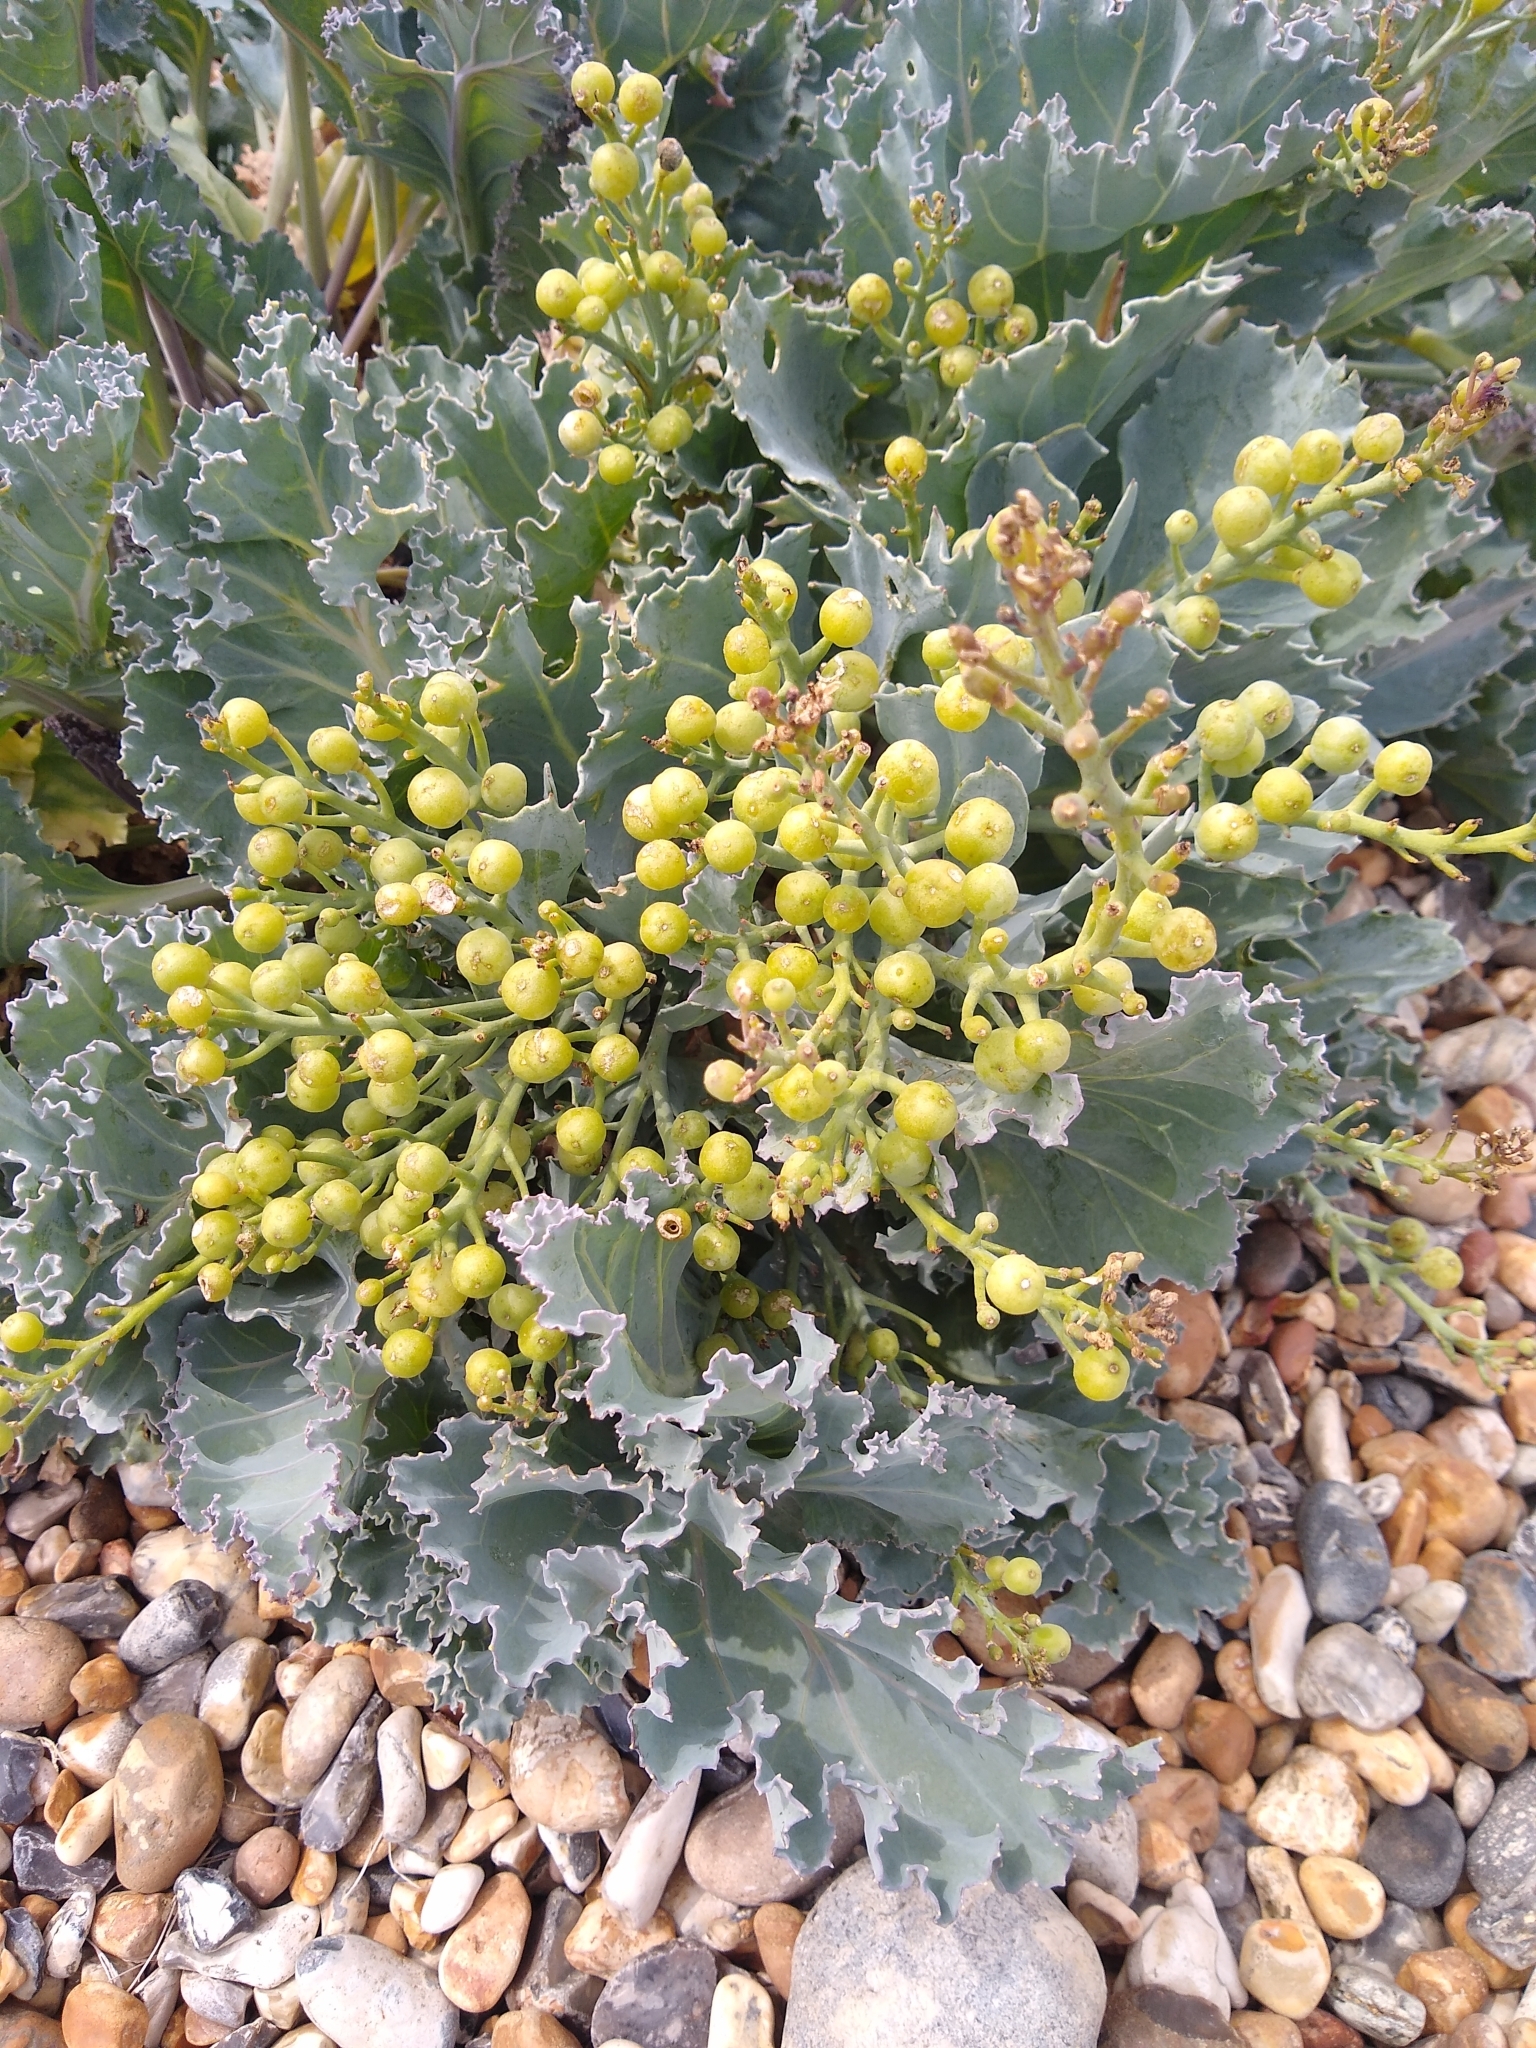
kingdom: Plantae
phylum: Tracheophyta
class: Magnoliopsida
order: Brassicales
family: Brassicaceae
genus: Crambe
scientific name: Crambe maritima
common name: Sea-kale
